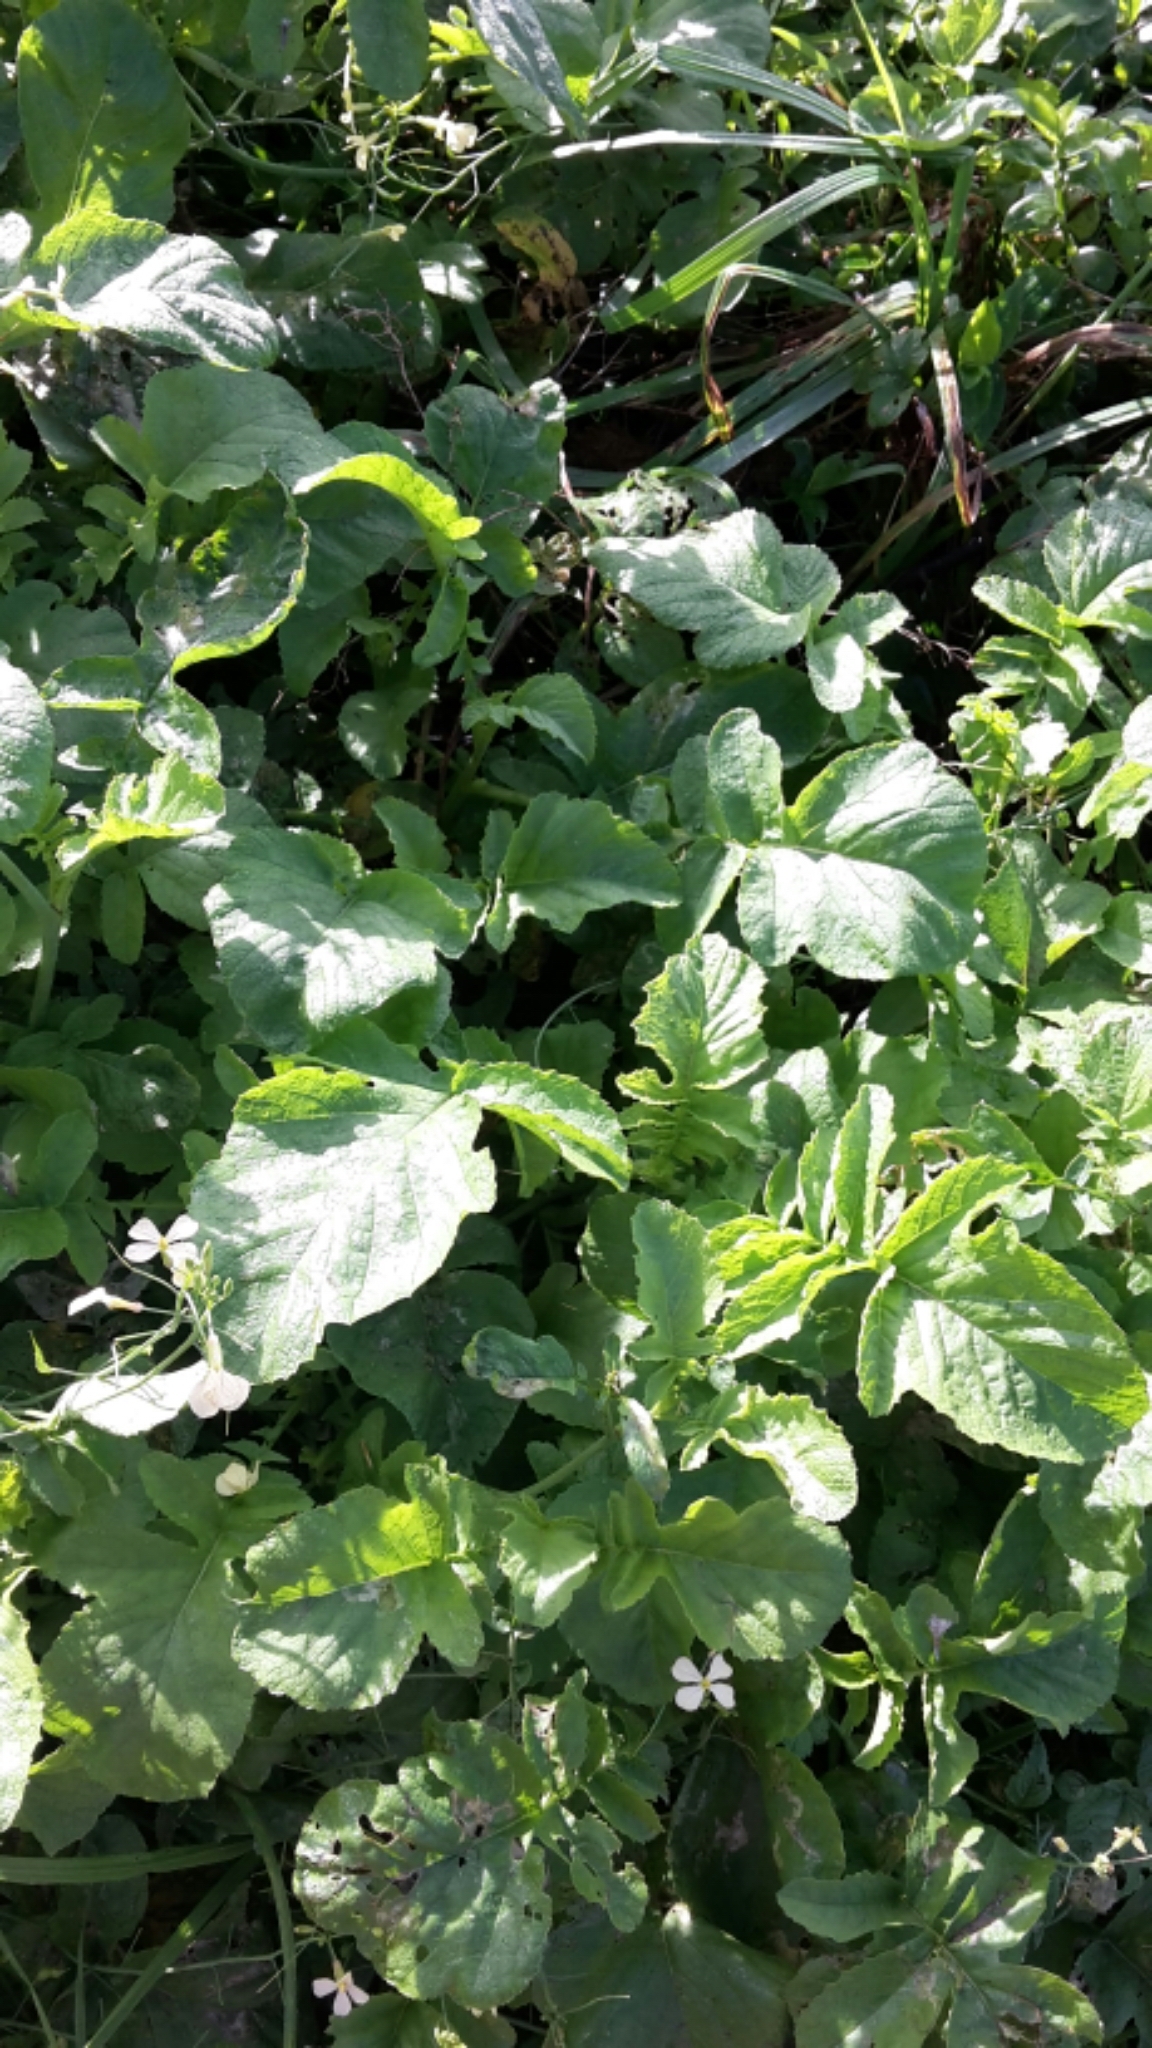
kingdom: Plantae
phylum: Tracheophyta
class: Magnoliopsida
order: Brassicales
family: Brassicaceae
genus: Raphanus
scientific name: Raphanus raphanistrum
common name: Wild radish
